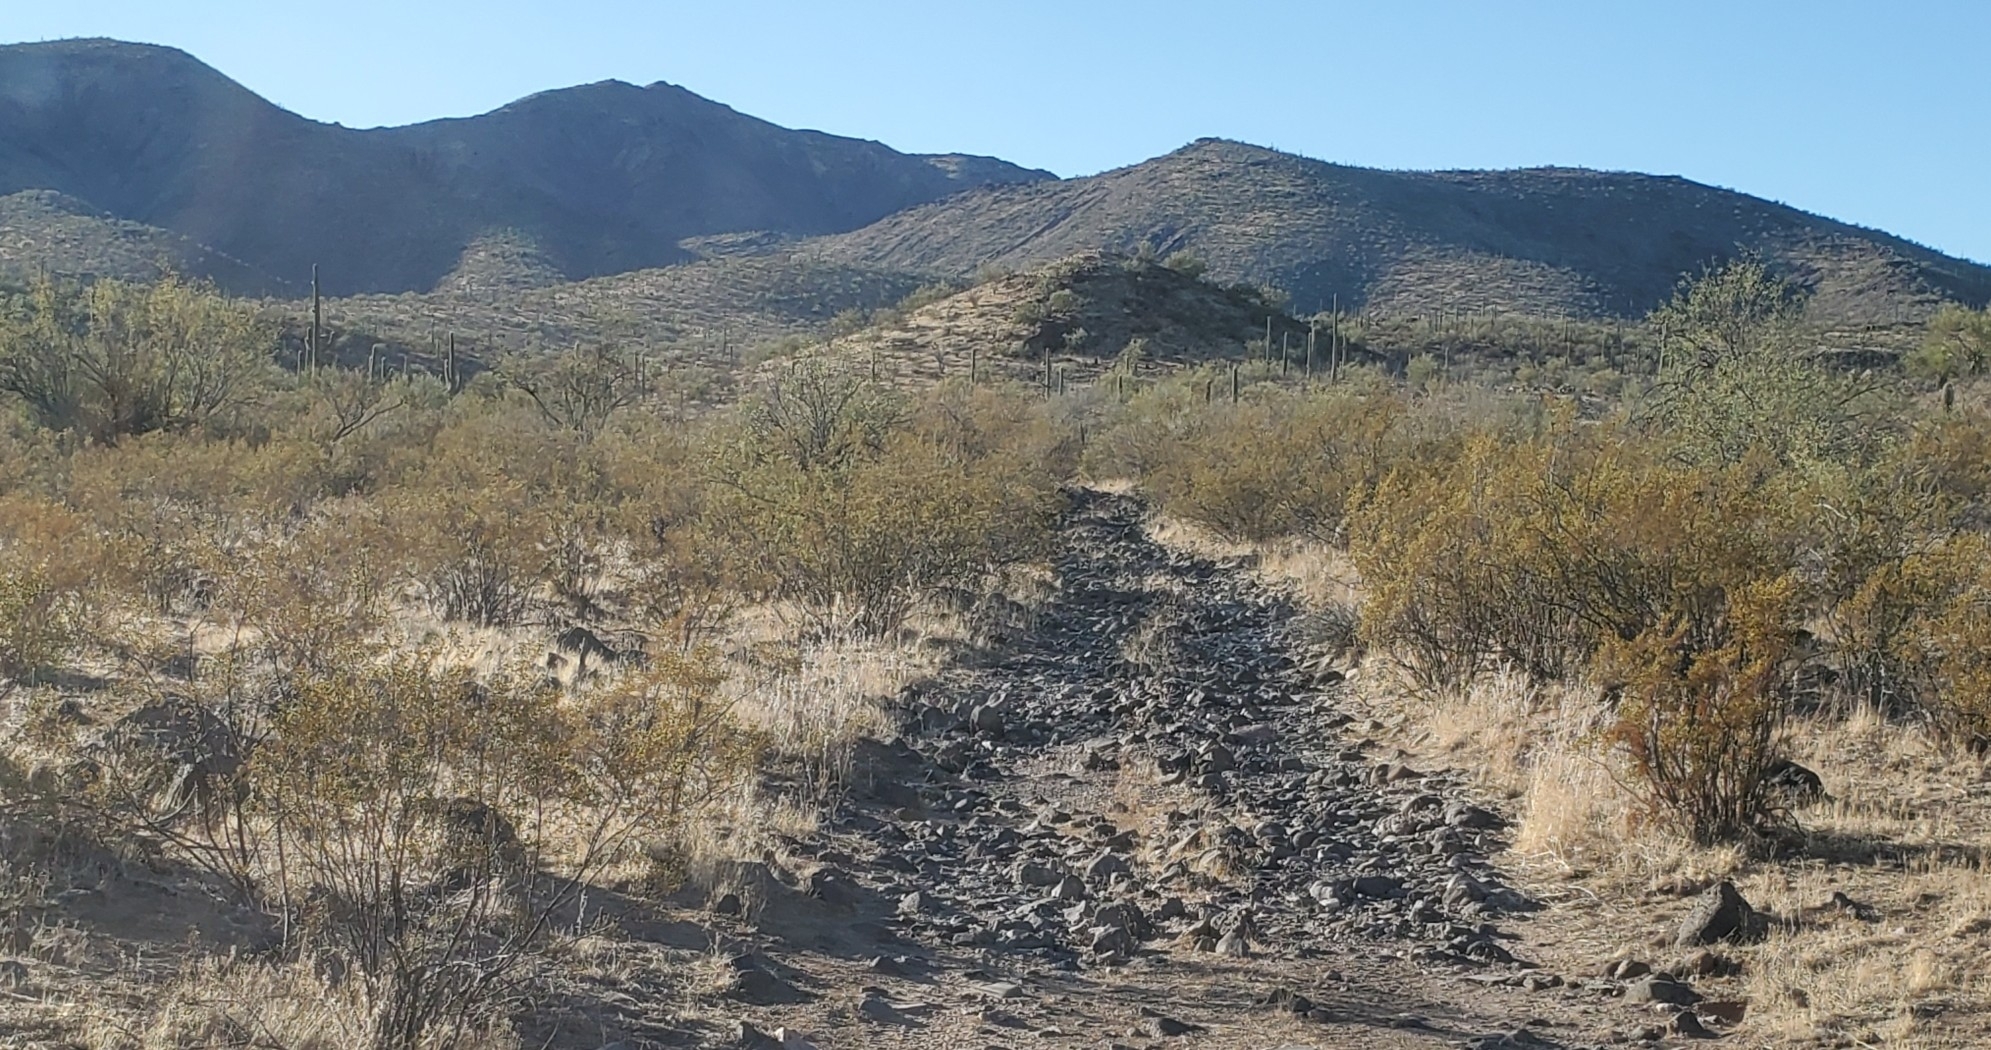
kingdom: Plantae
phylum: Tracheophyta
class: Magnoliopsida
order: Zygophyllales
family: Zygophyllaceae
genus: Larrea
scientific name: Larrea tridentata
